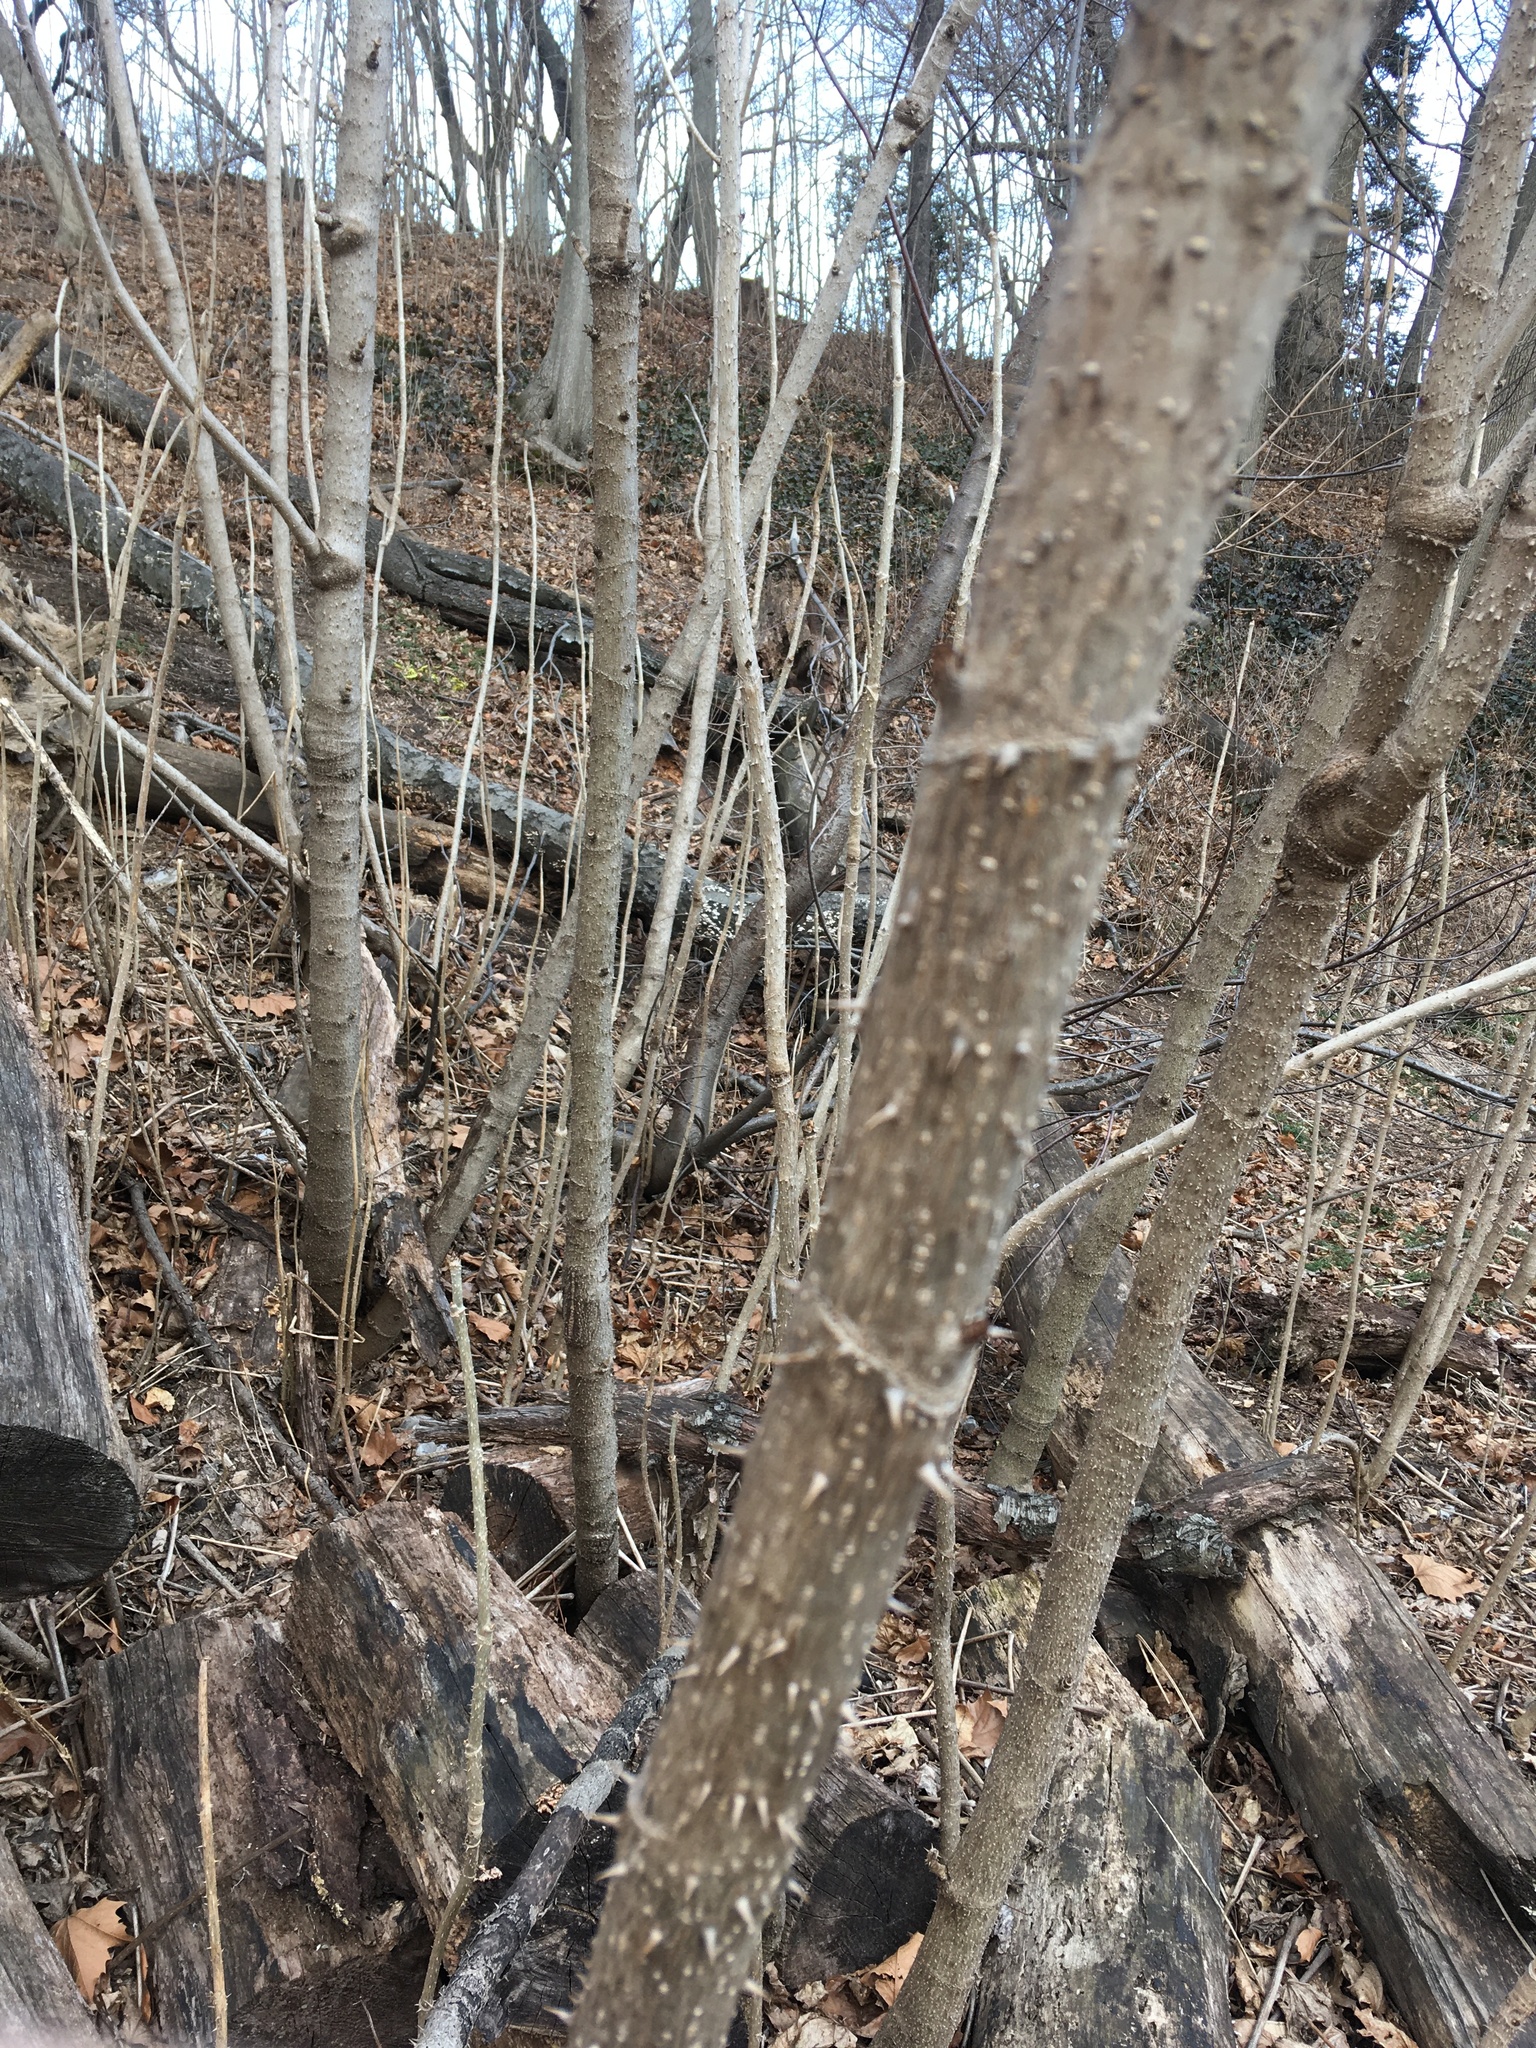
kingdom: Plantae
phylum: Tracheophyta
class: Magnoliopsida
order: Apiales
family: Araliaceae
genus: Aralia
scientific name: Aralia elata
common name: Japanese angelica-tree
